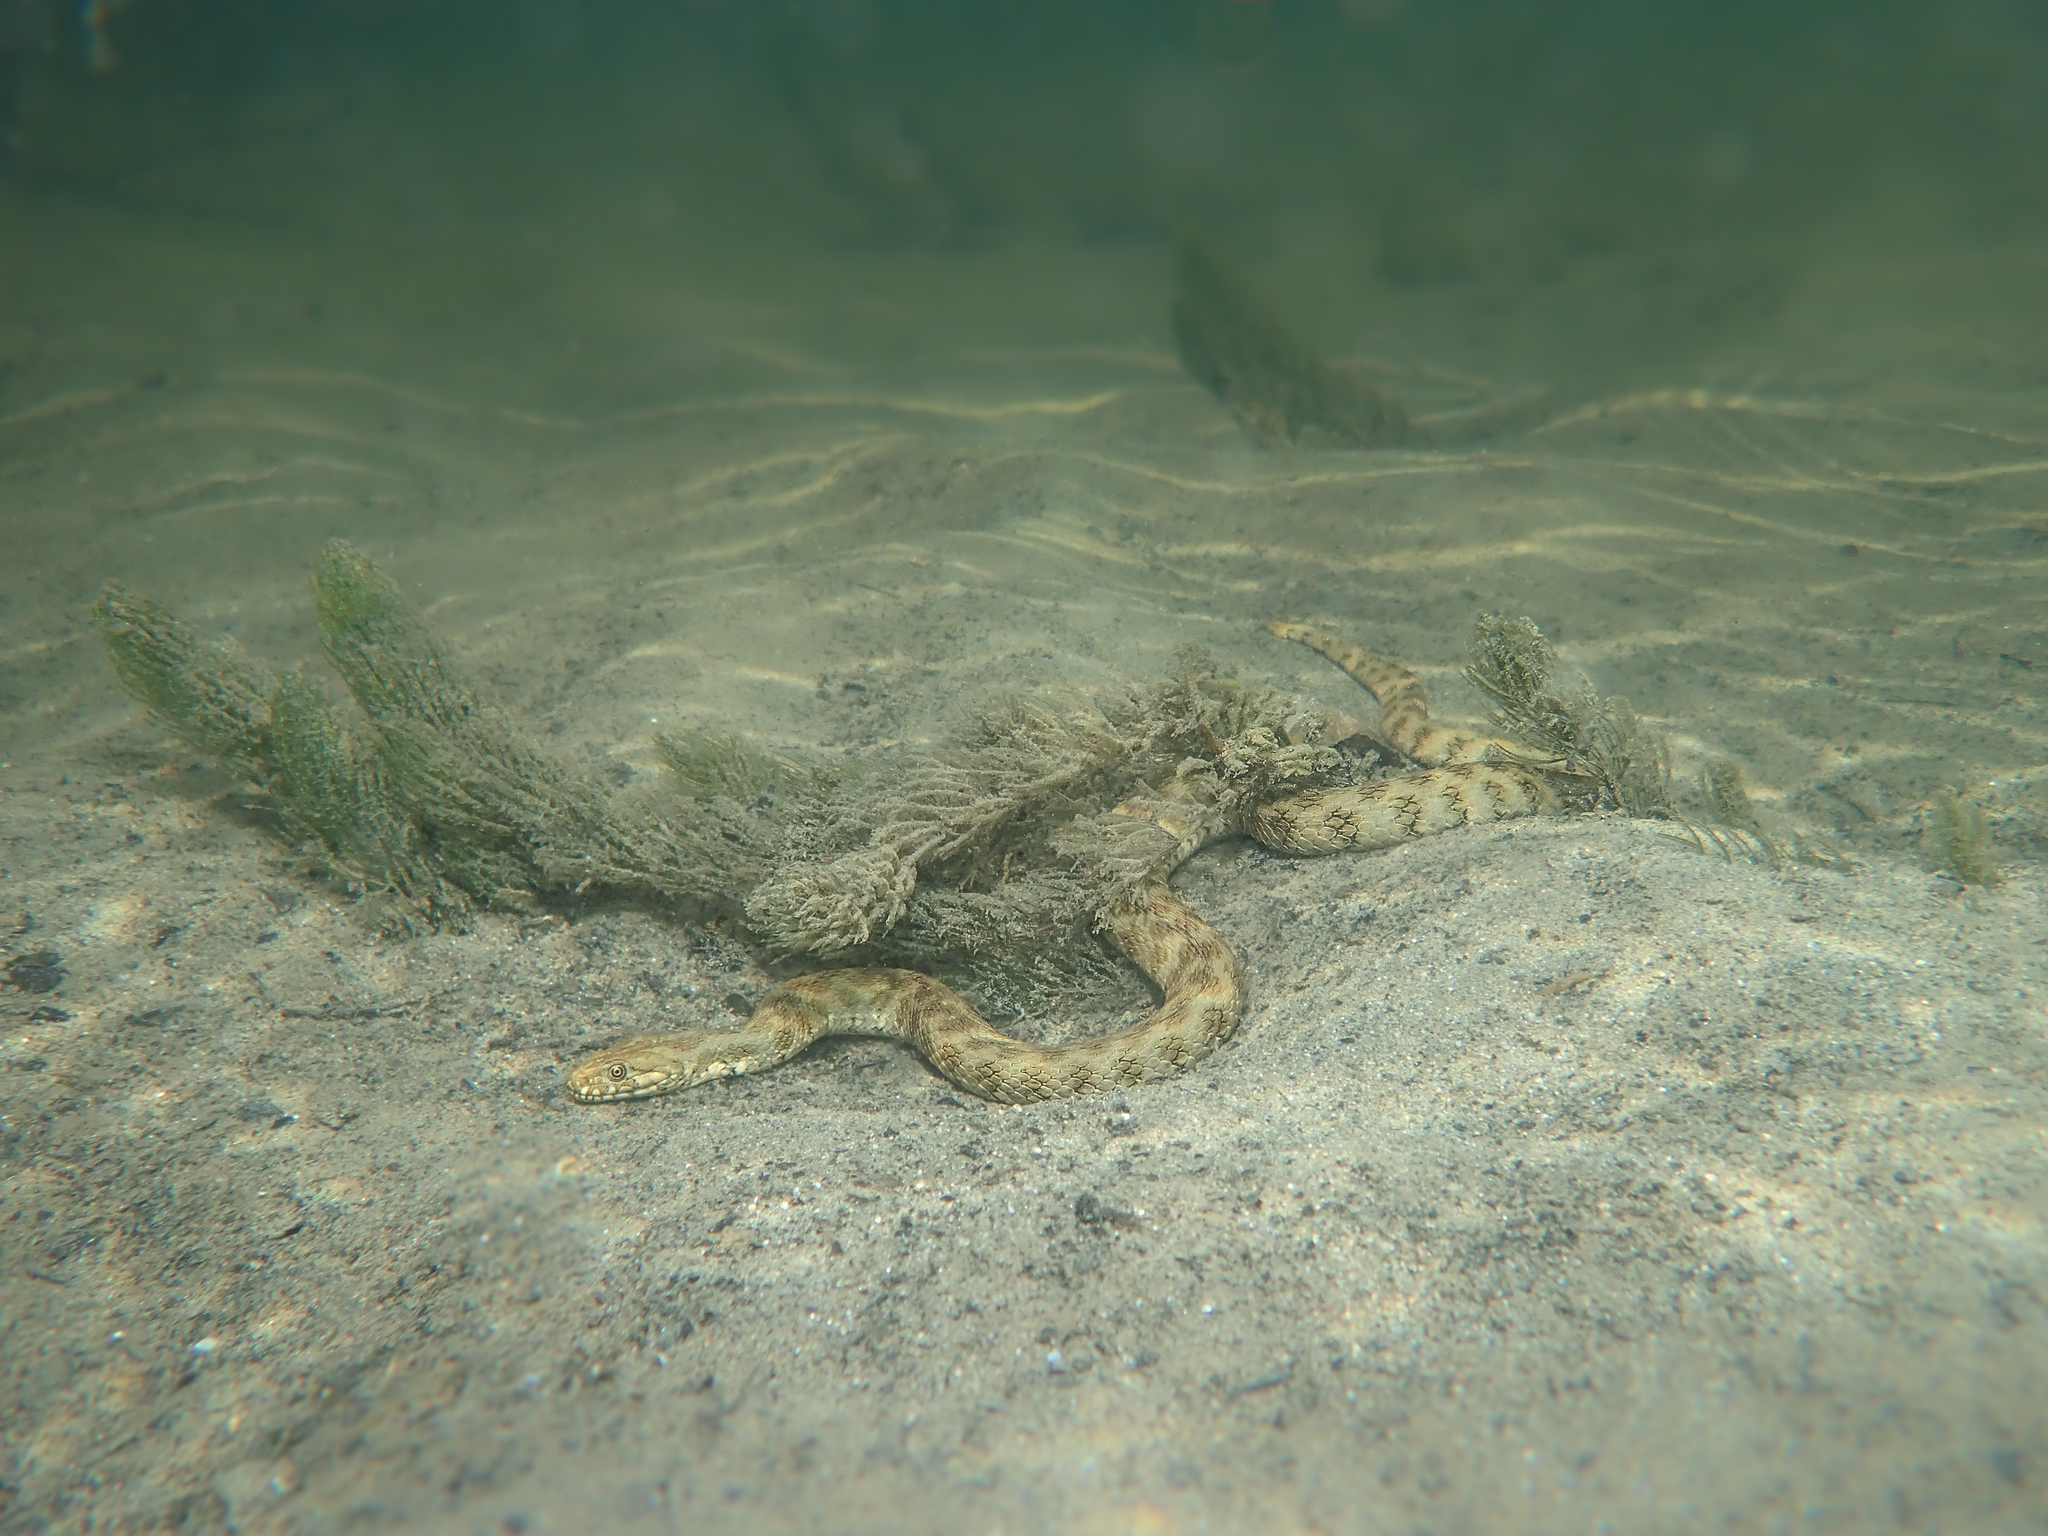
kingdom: Animalia
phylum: Chordata
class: Squamata
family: Colubridae
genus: Natrix
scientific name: Natrix maura
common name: Viperine water snake
